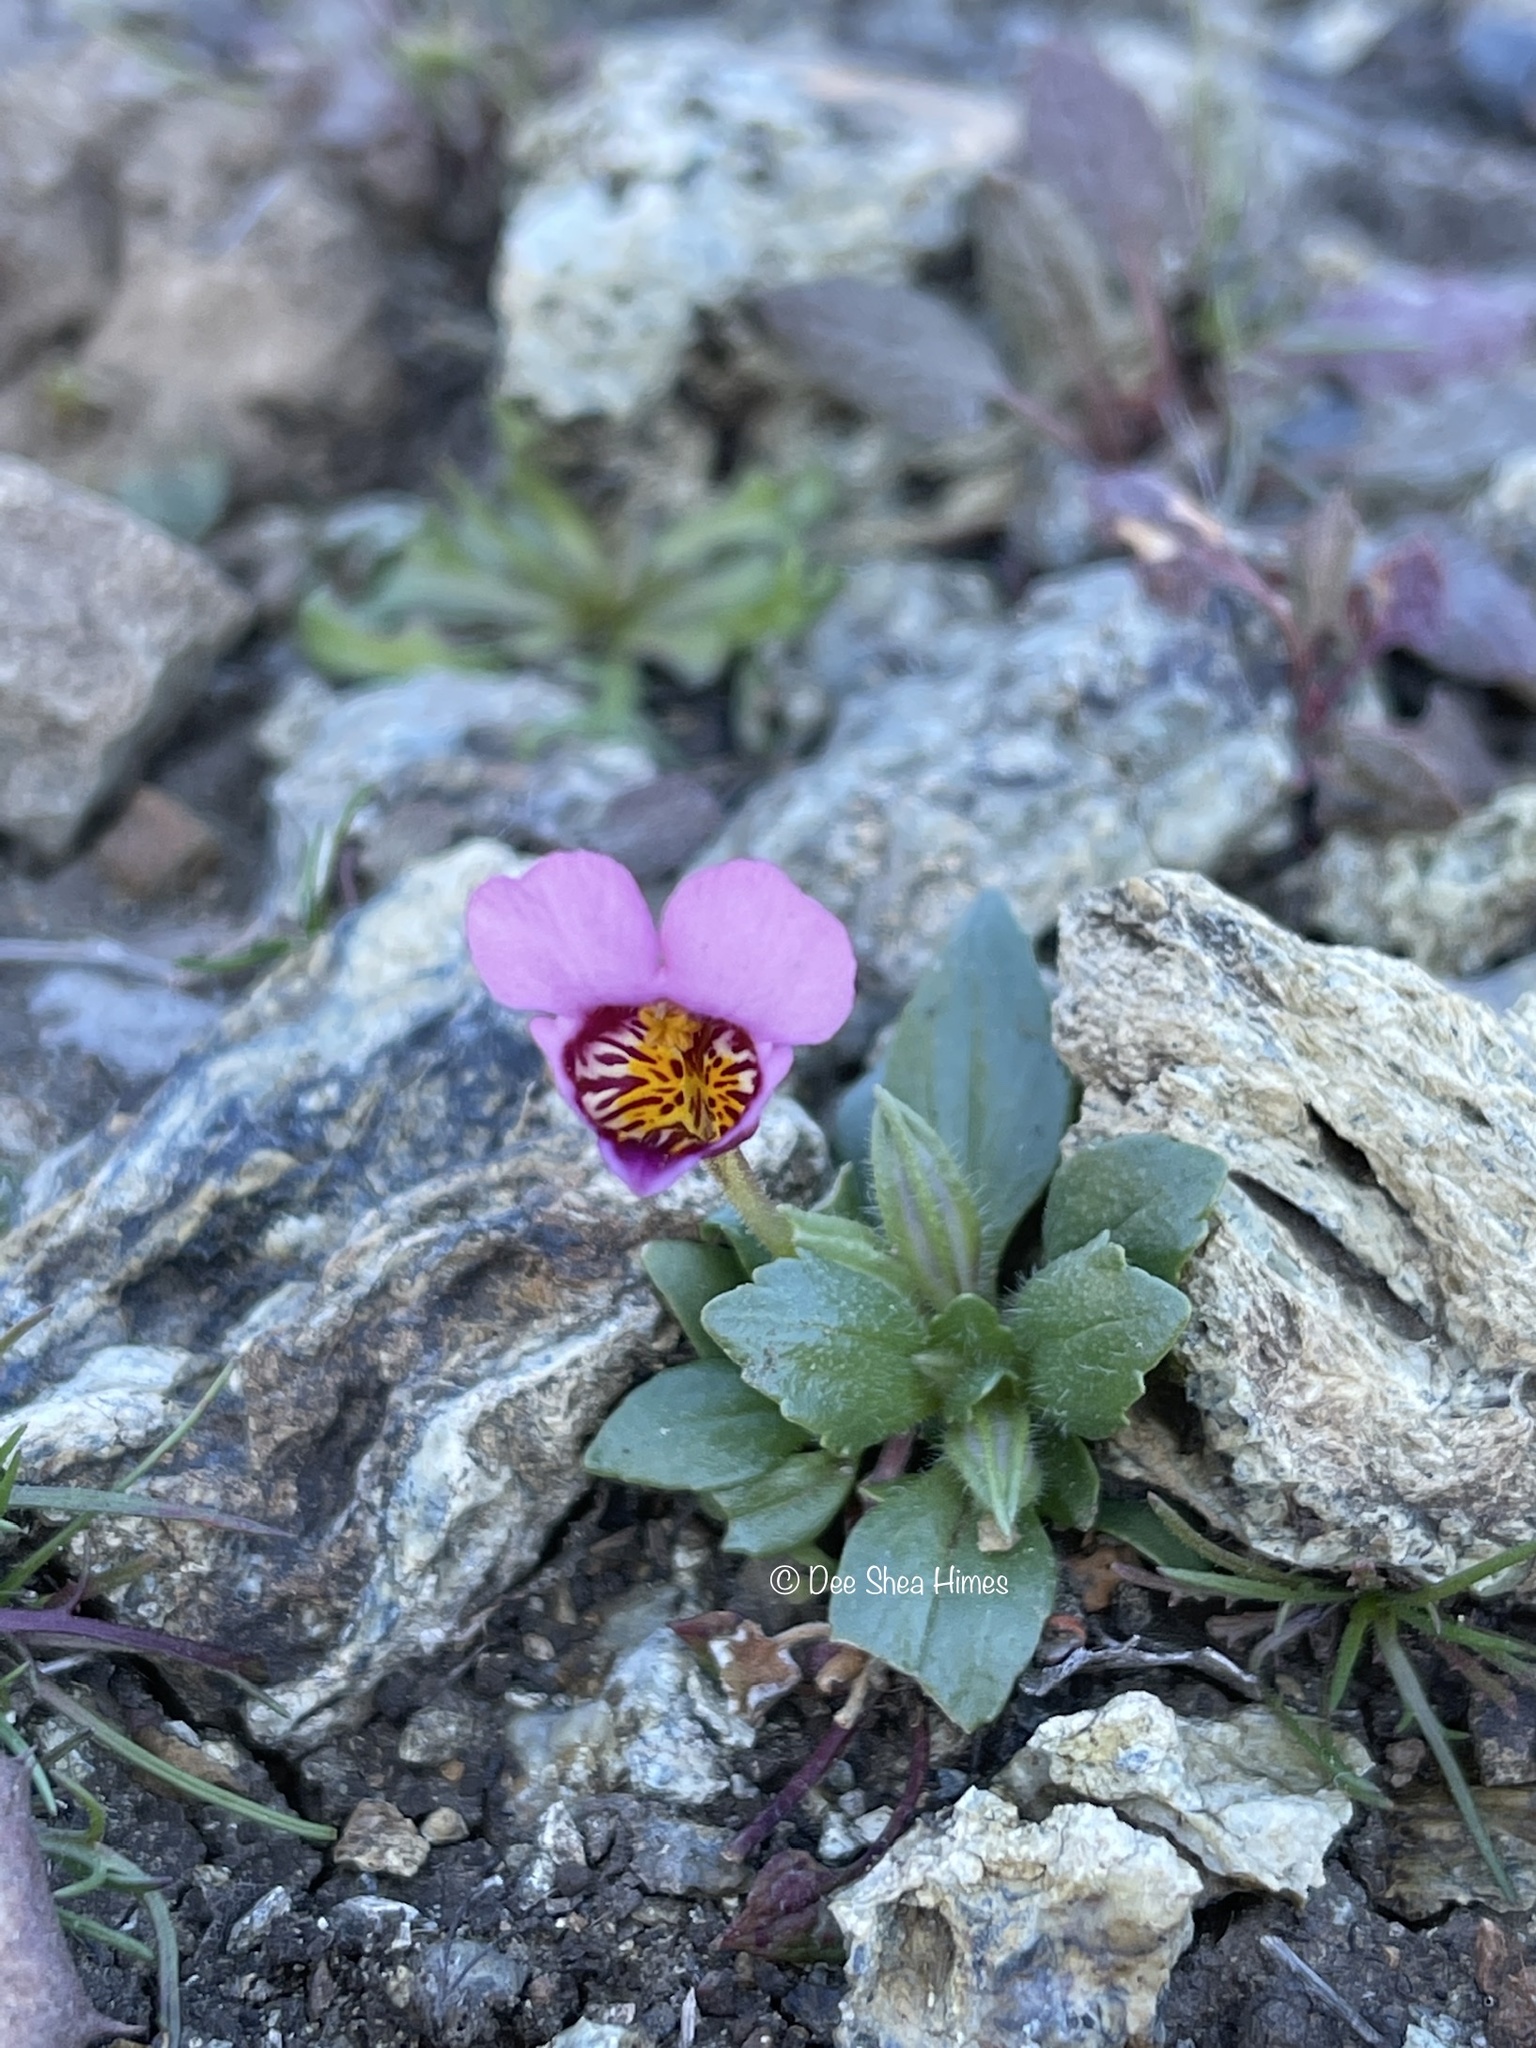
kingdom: Plantae
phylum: Tracheophyta
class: Magnoliopsida
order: Lamiales
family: Phrymaceae
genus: Diplacus
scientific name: Diplacus douglasii
